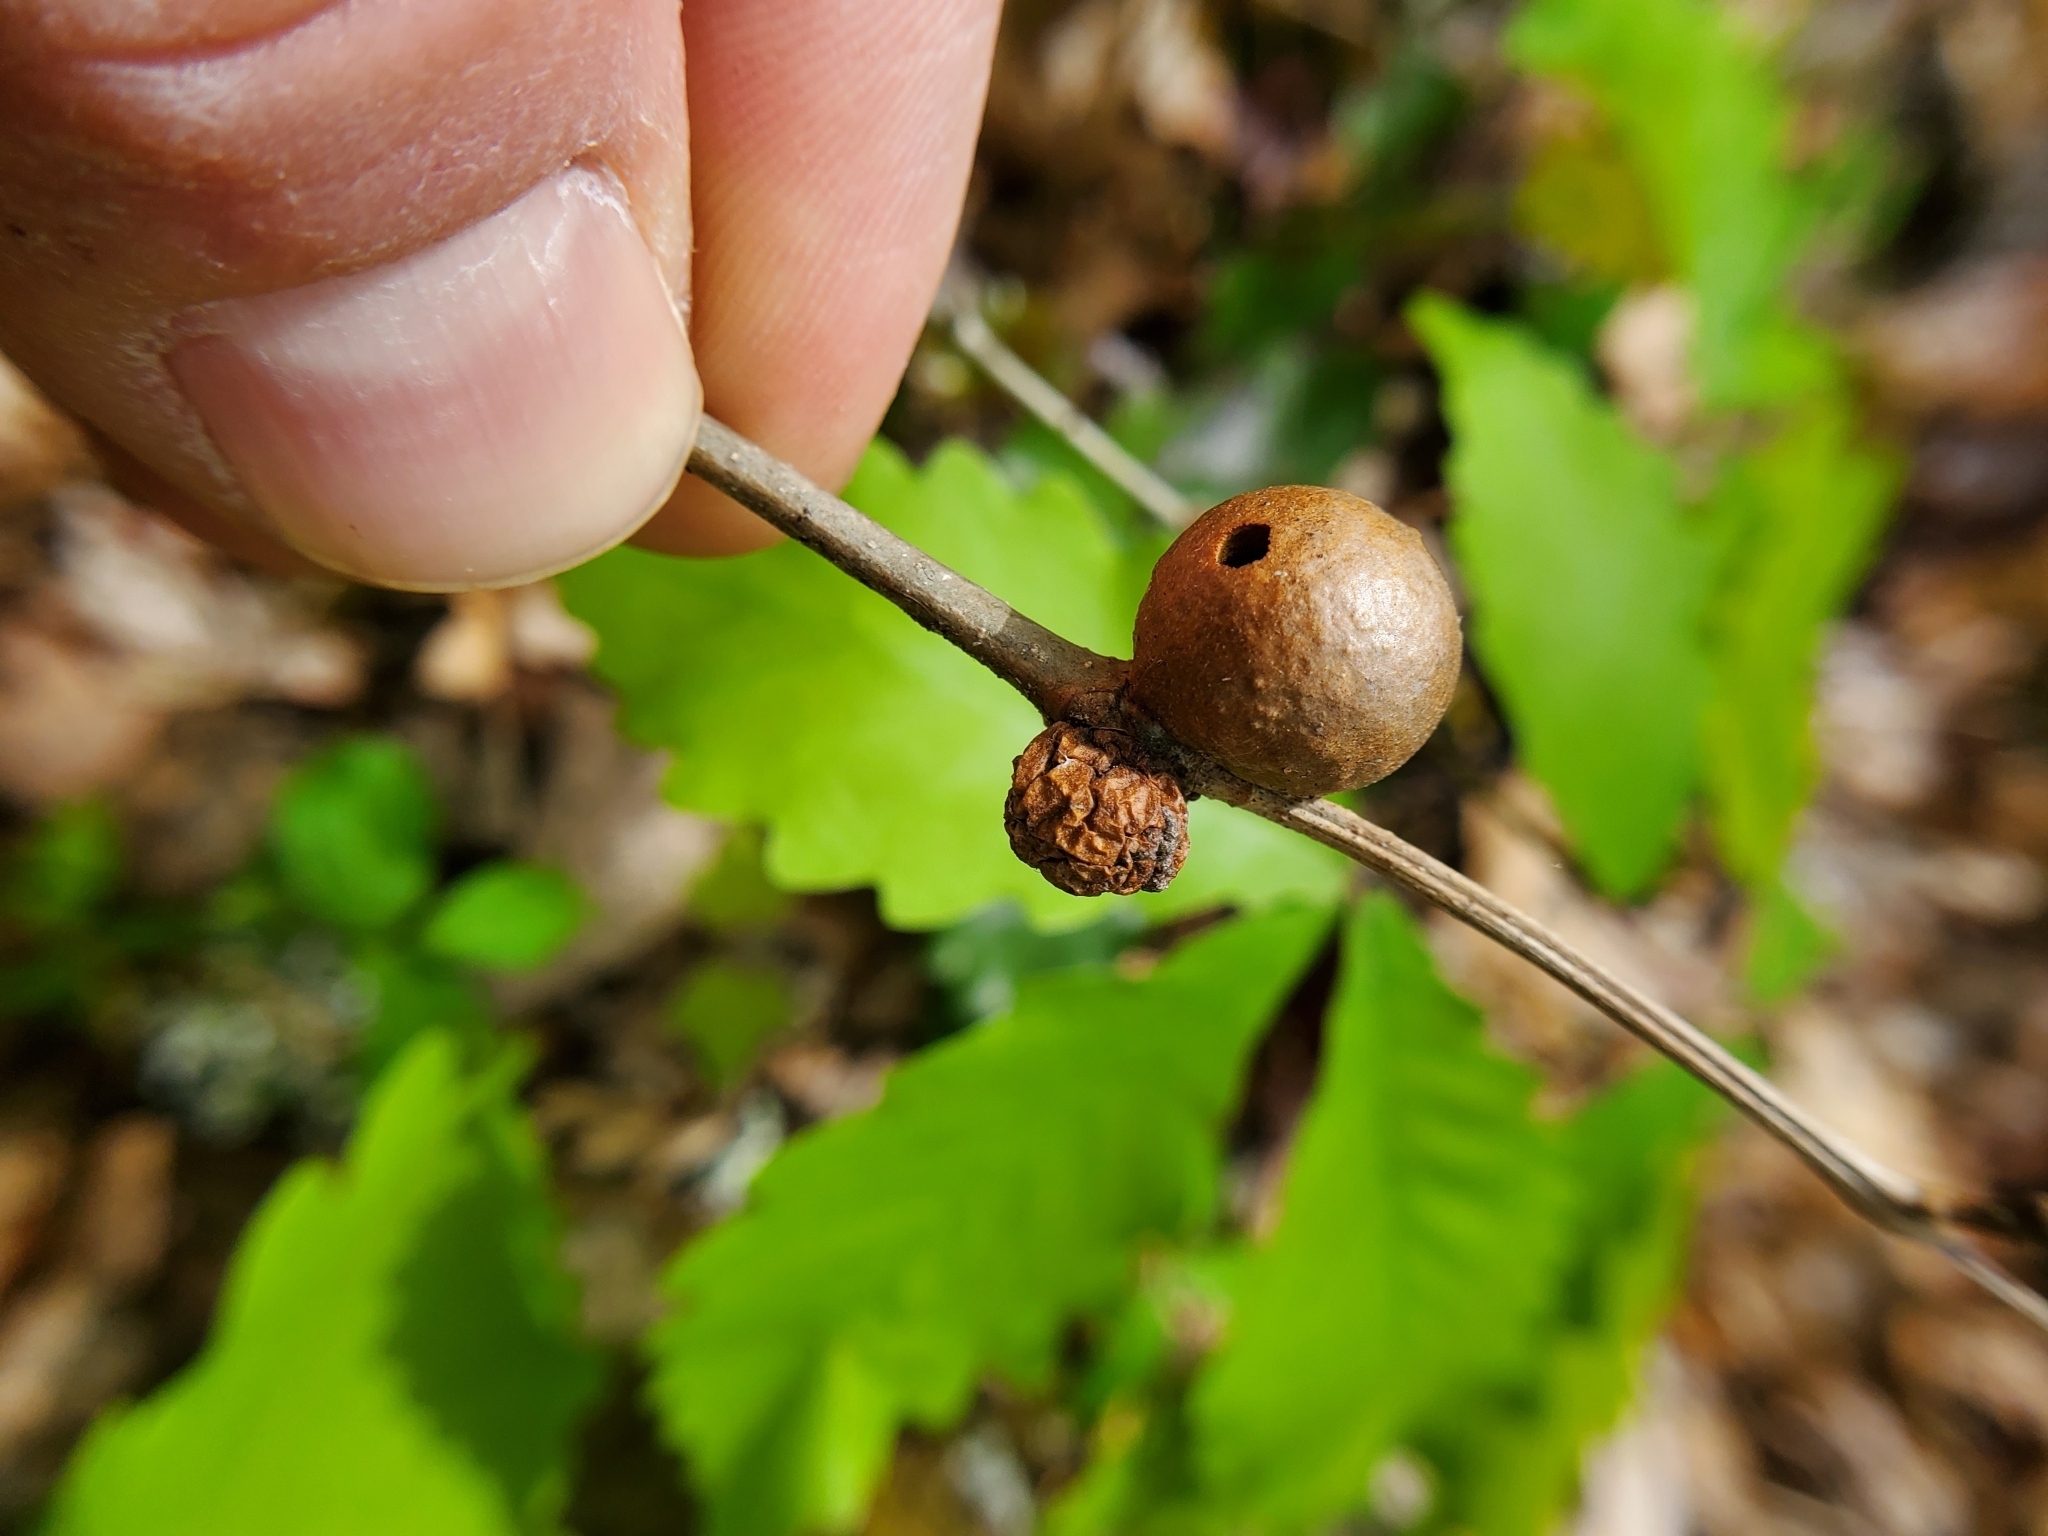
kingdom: Animalia
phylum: Arthropoda
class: Insecta
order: Hymenoptera
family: Cynipidae
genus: Disholcaspis
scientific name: Disholcaspis quercusglobulus
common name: Round bullet gall wasp
